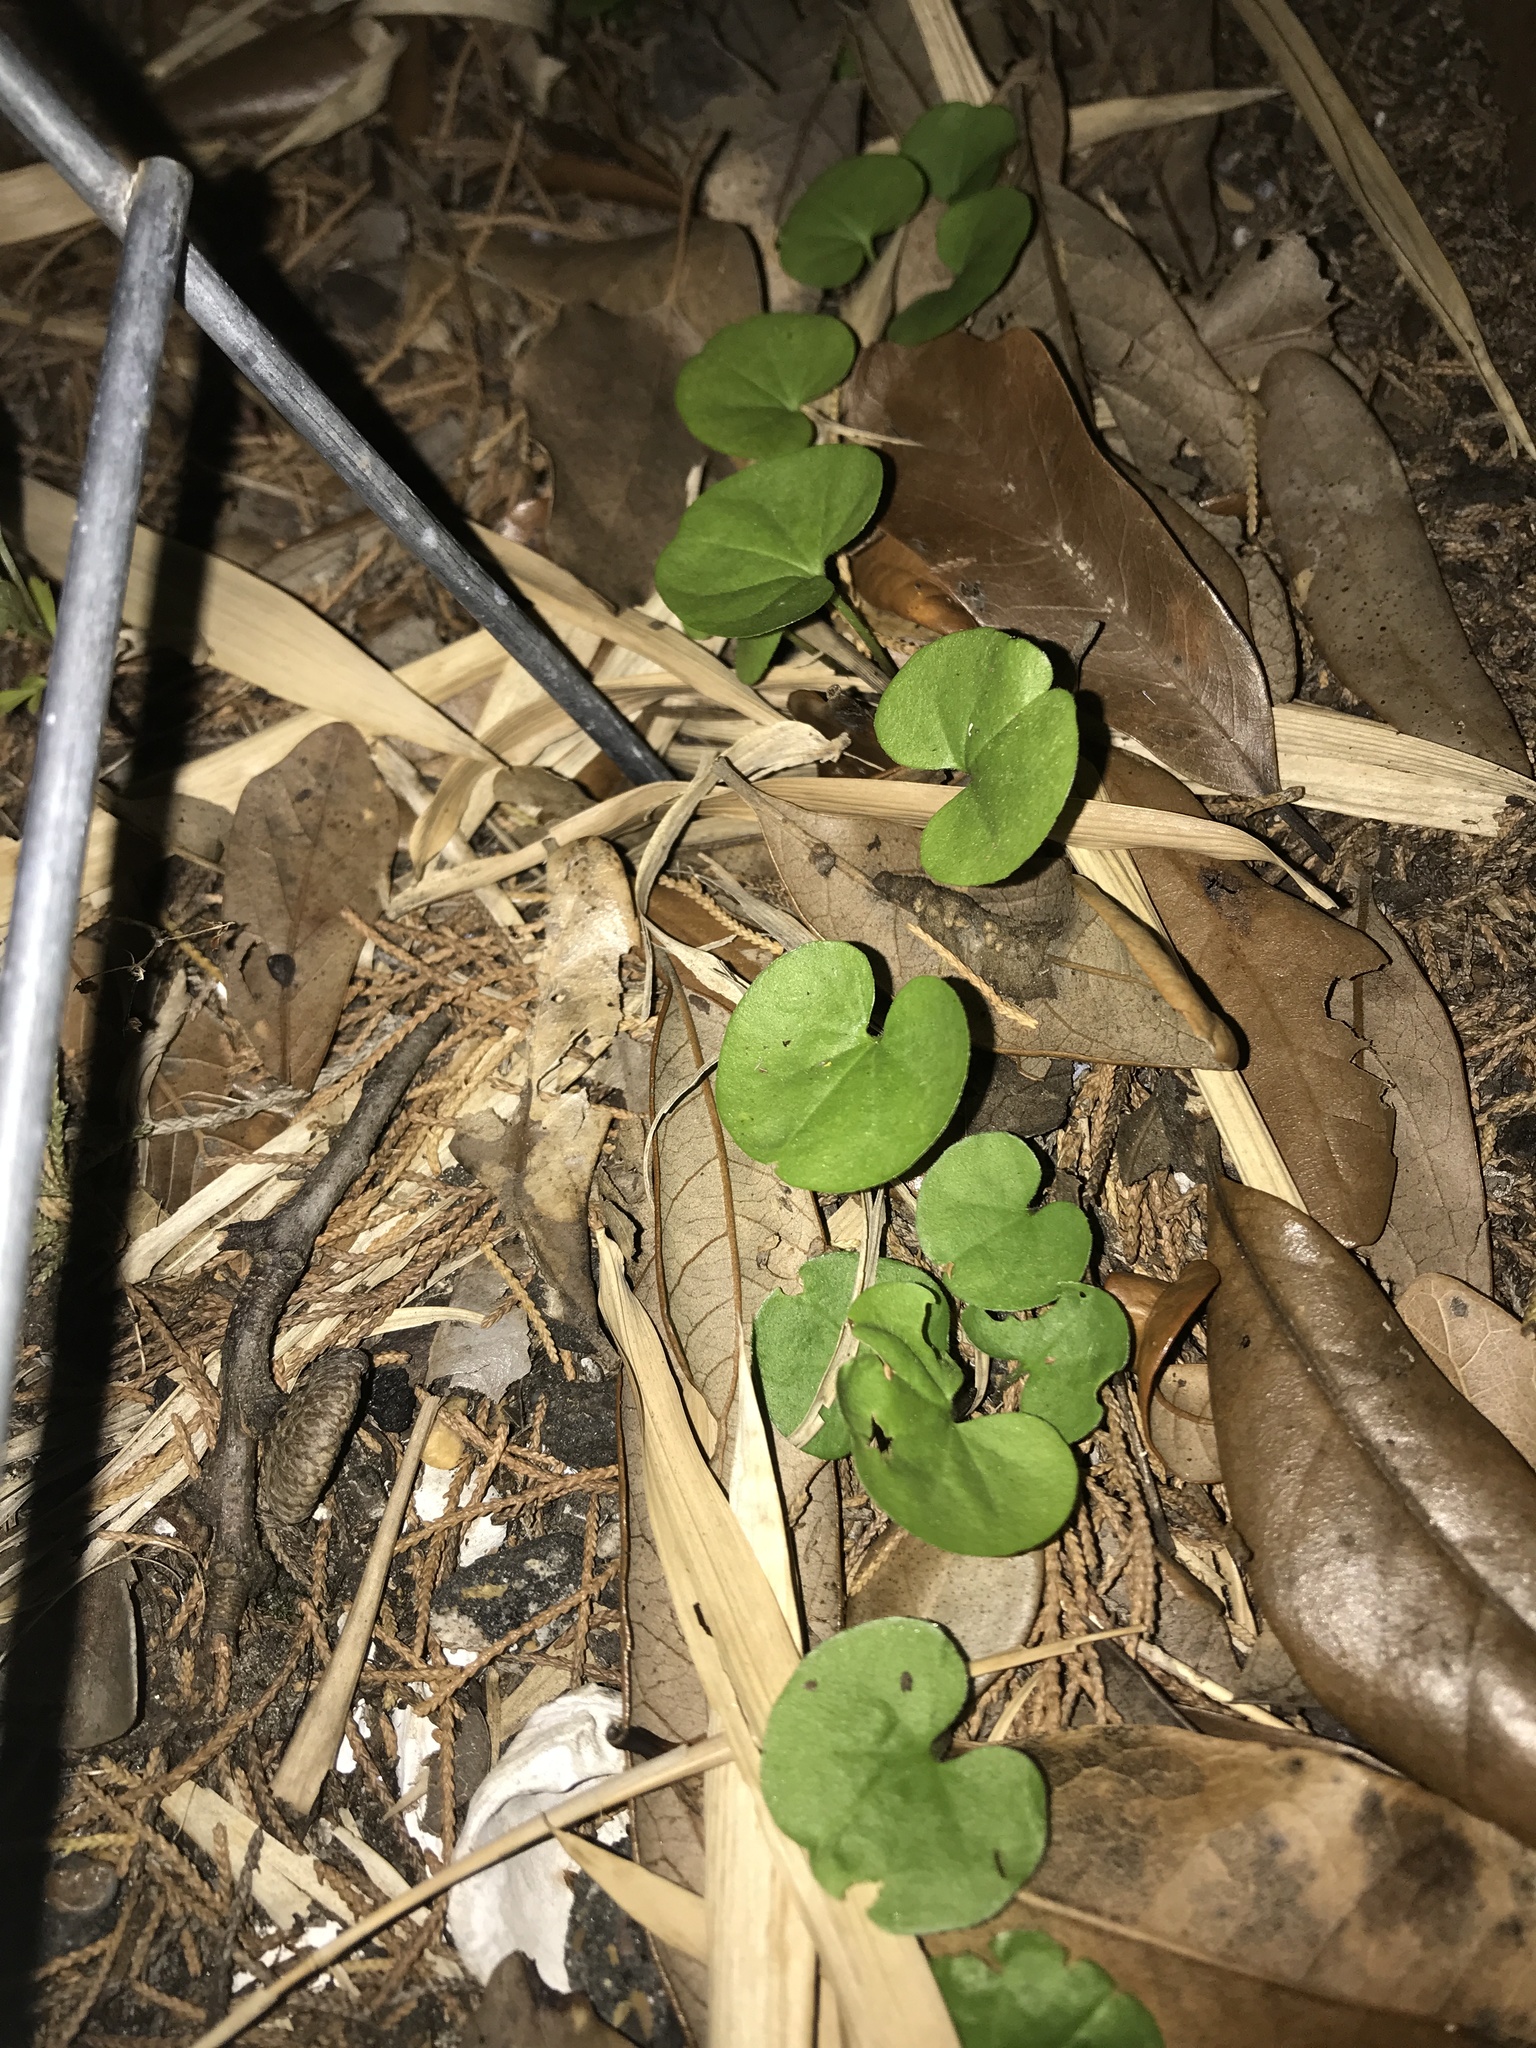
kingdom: Plantae
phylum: Tracheophyta
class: Magnoliopsida
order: Solanales
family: Convolvulaceae
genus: Dichondra
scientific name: Dichondra carolinensis
